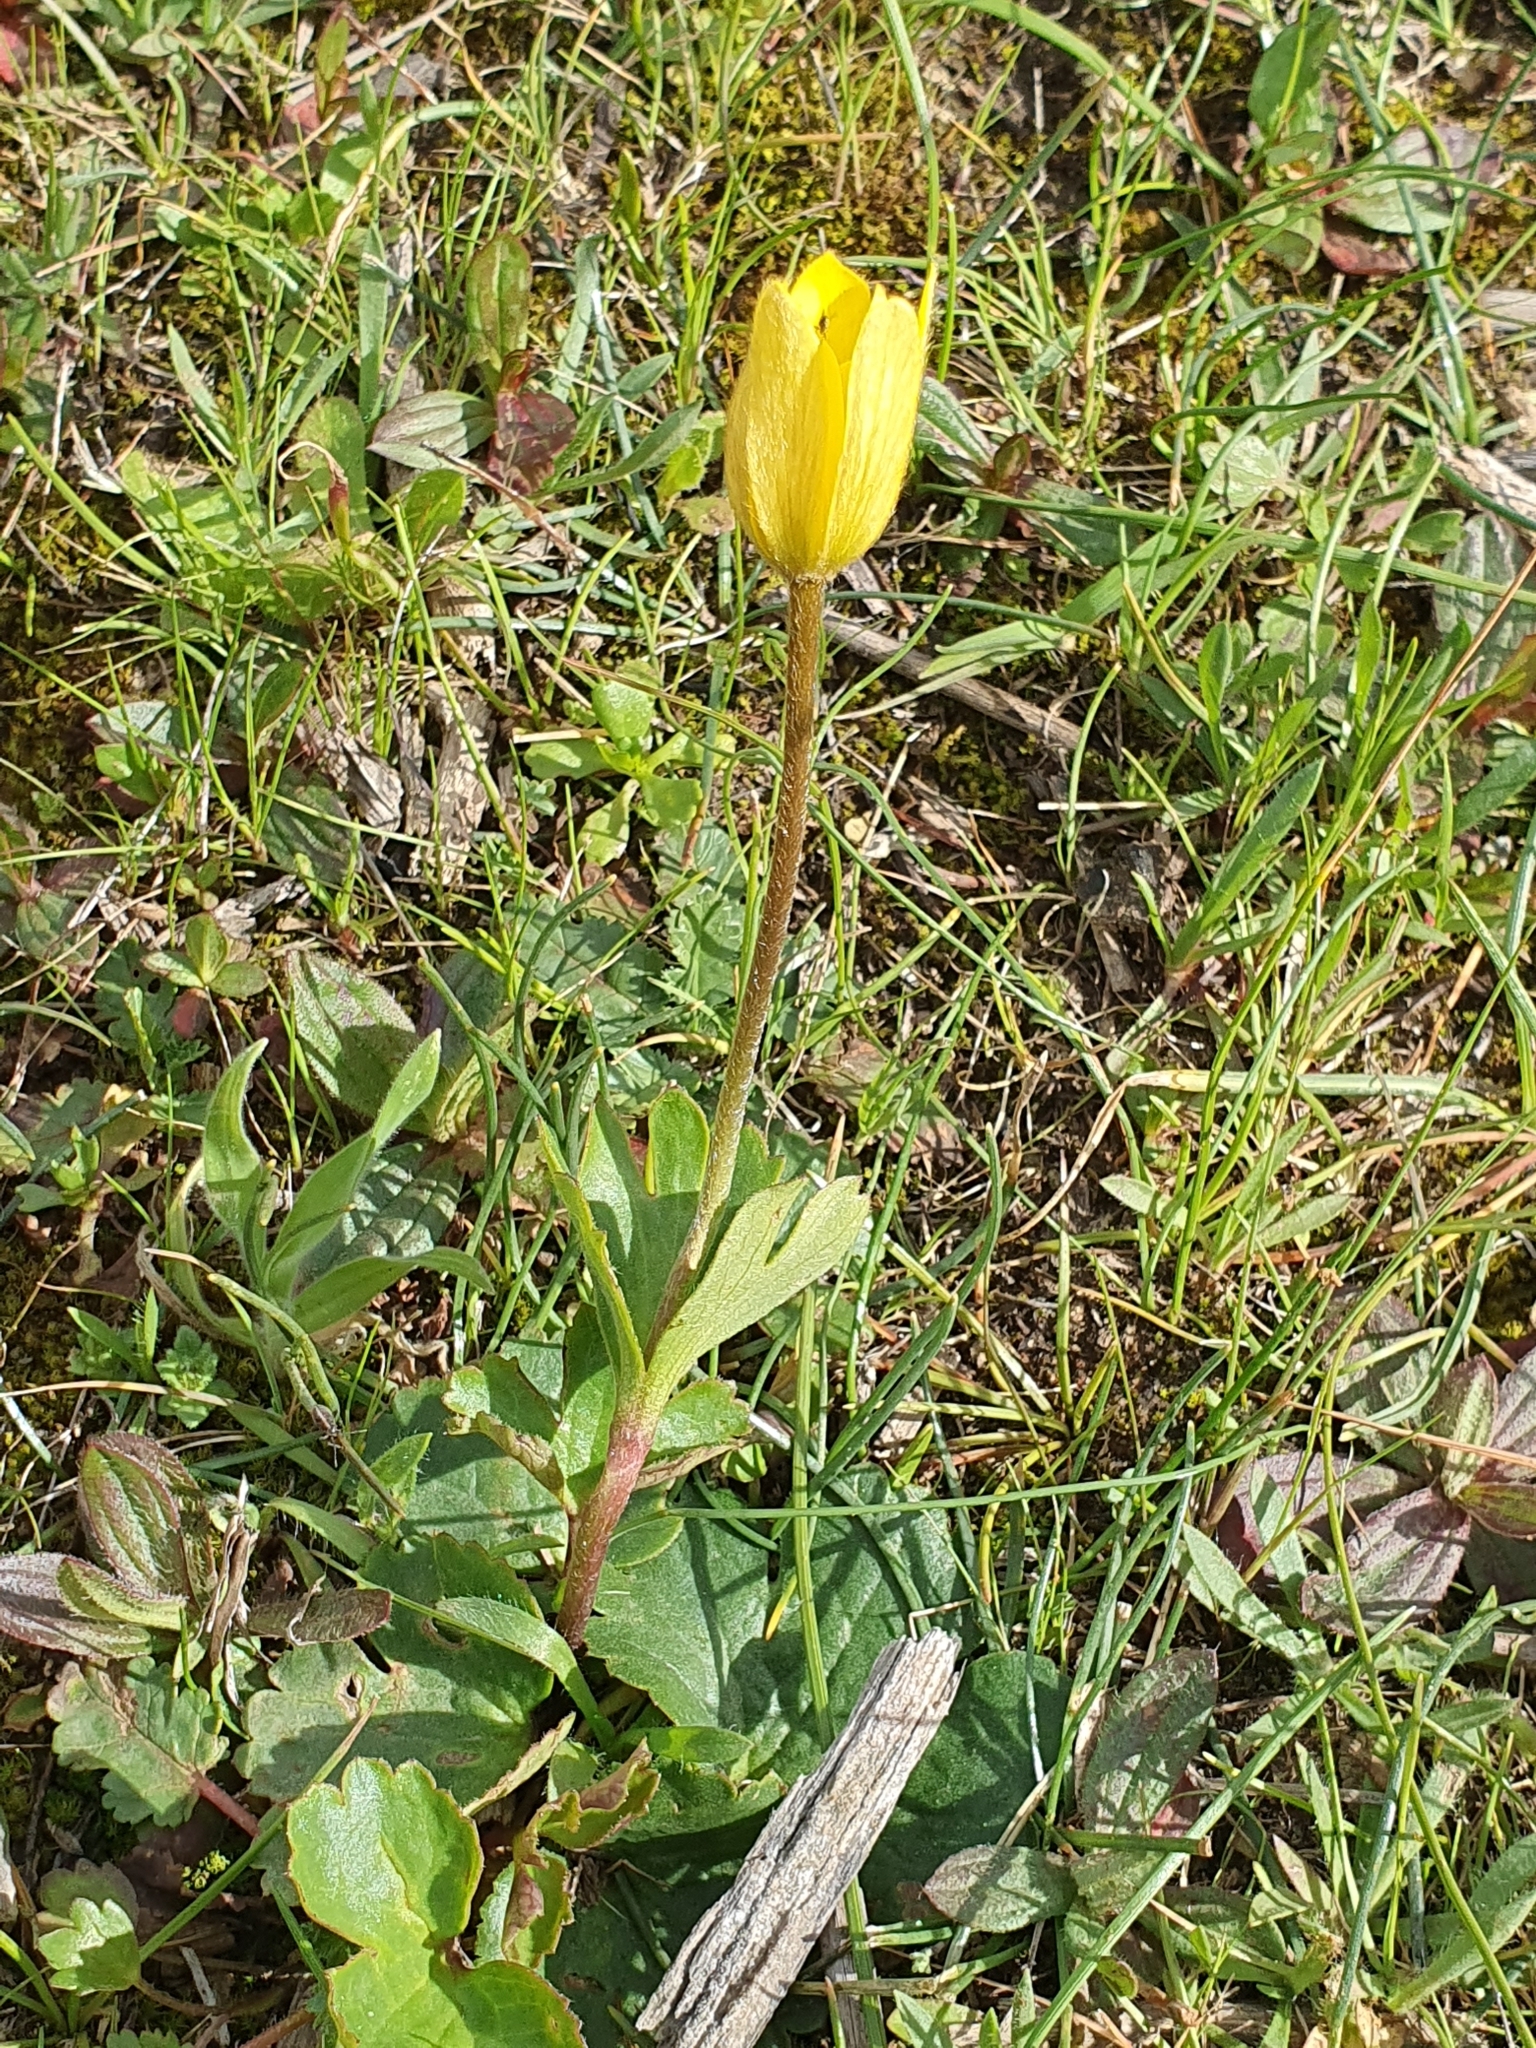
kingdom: Plantae
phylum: Tracheophyta
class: Magnoliopsida
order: Ranunculales
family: Ranunculaceae
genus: Anemone
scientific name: Anemone palmata
